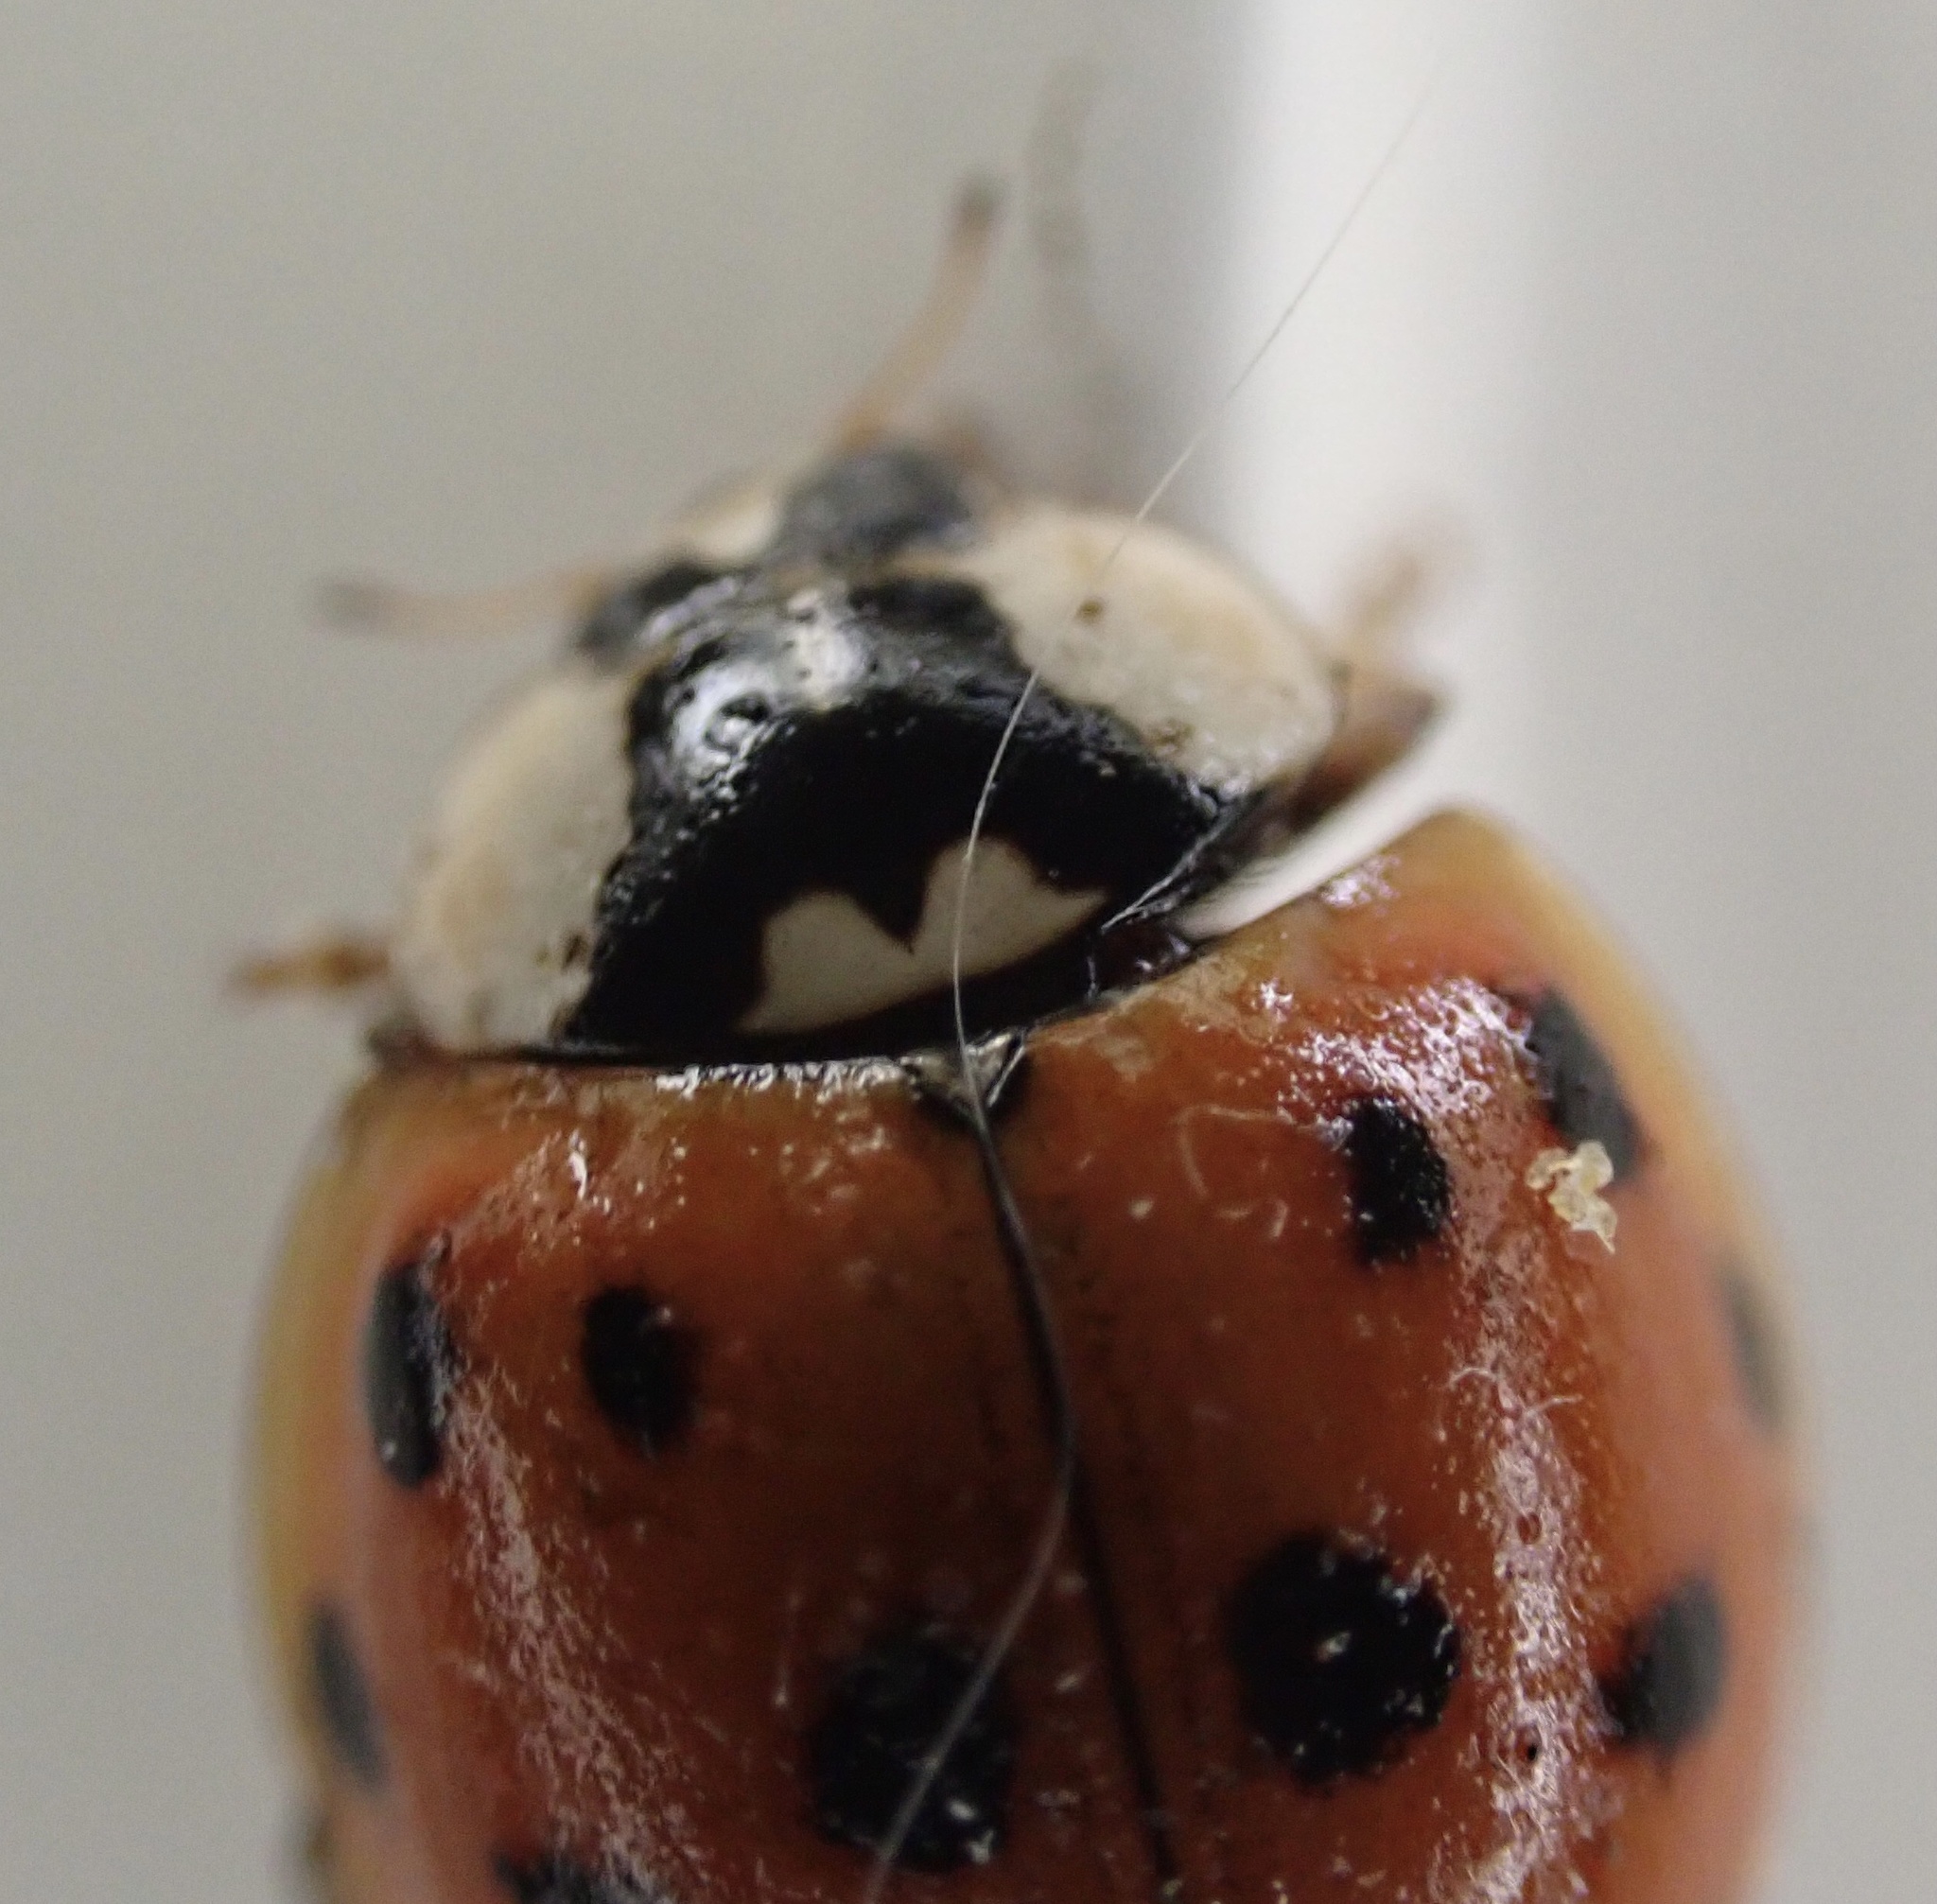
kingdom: Animalia
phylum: Arthropoda
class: Insecta
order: Coleoptera
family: Coccinellidae
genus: Harmonia
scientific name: Harmonia axyridis
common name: Harlequin ladybird
